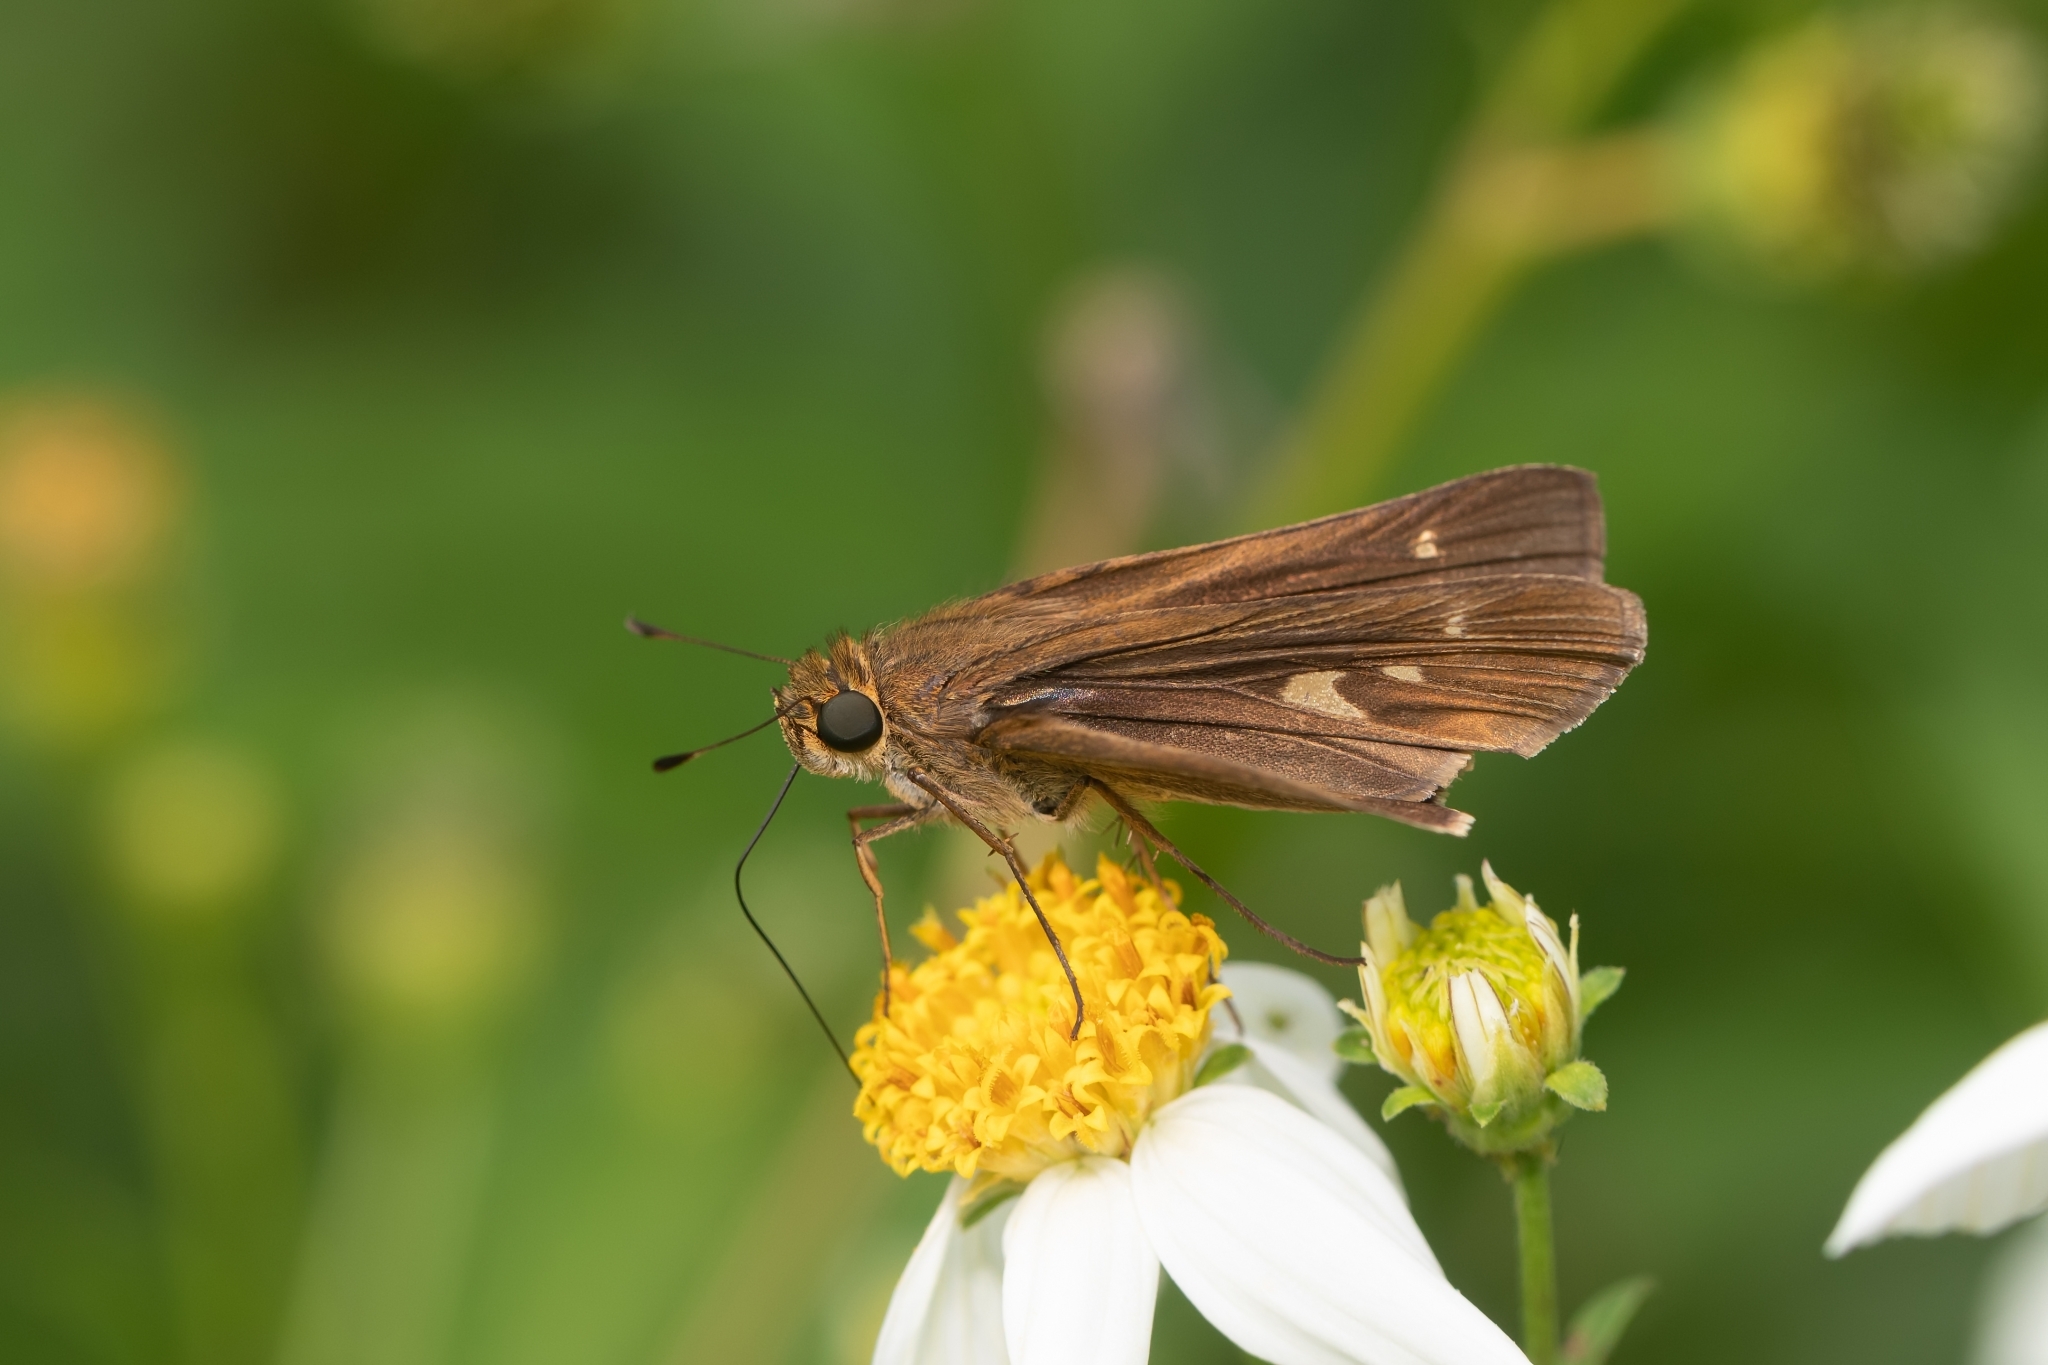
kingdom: Animalia
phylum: Arthropoda
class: Insecta
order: Lepidoptera
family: Hesperiidae
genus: Panoquina
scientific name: Panoquina ocola
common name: Ocola skipper
